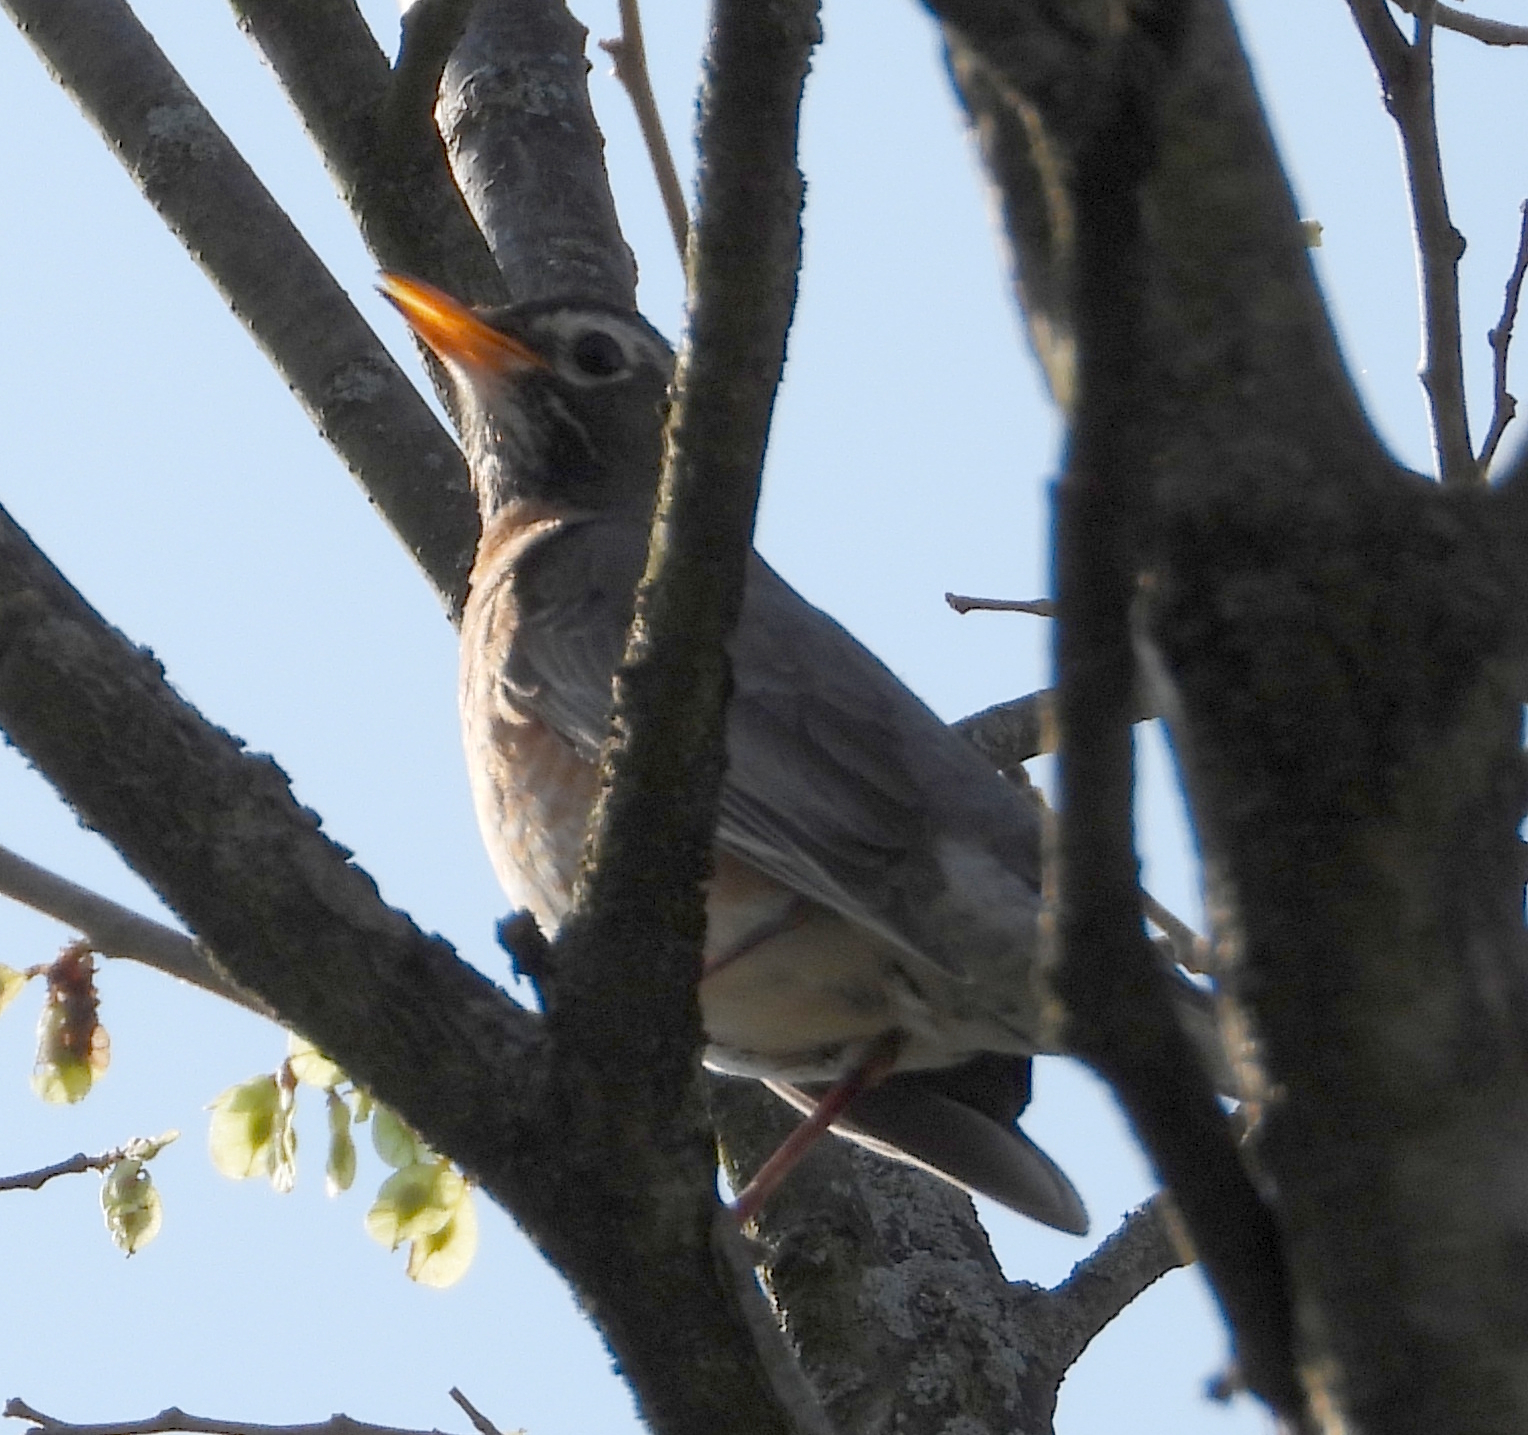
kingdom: Animalia
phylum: Chordata
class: Aves
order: Passeriformes
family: Turdidae
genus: Turdus
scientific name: Turdus migratorius
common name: American robin
